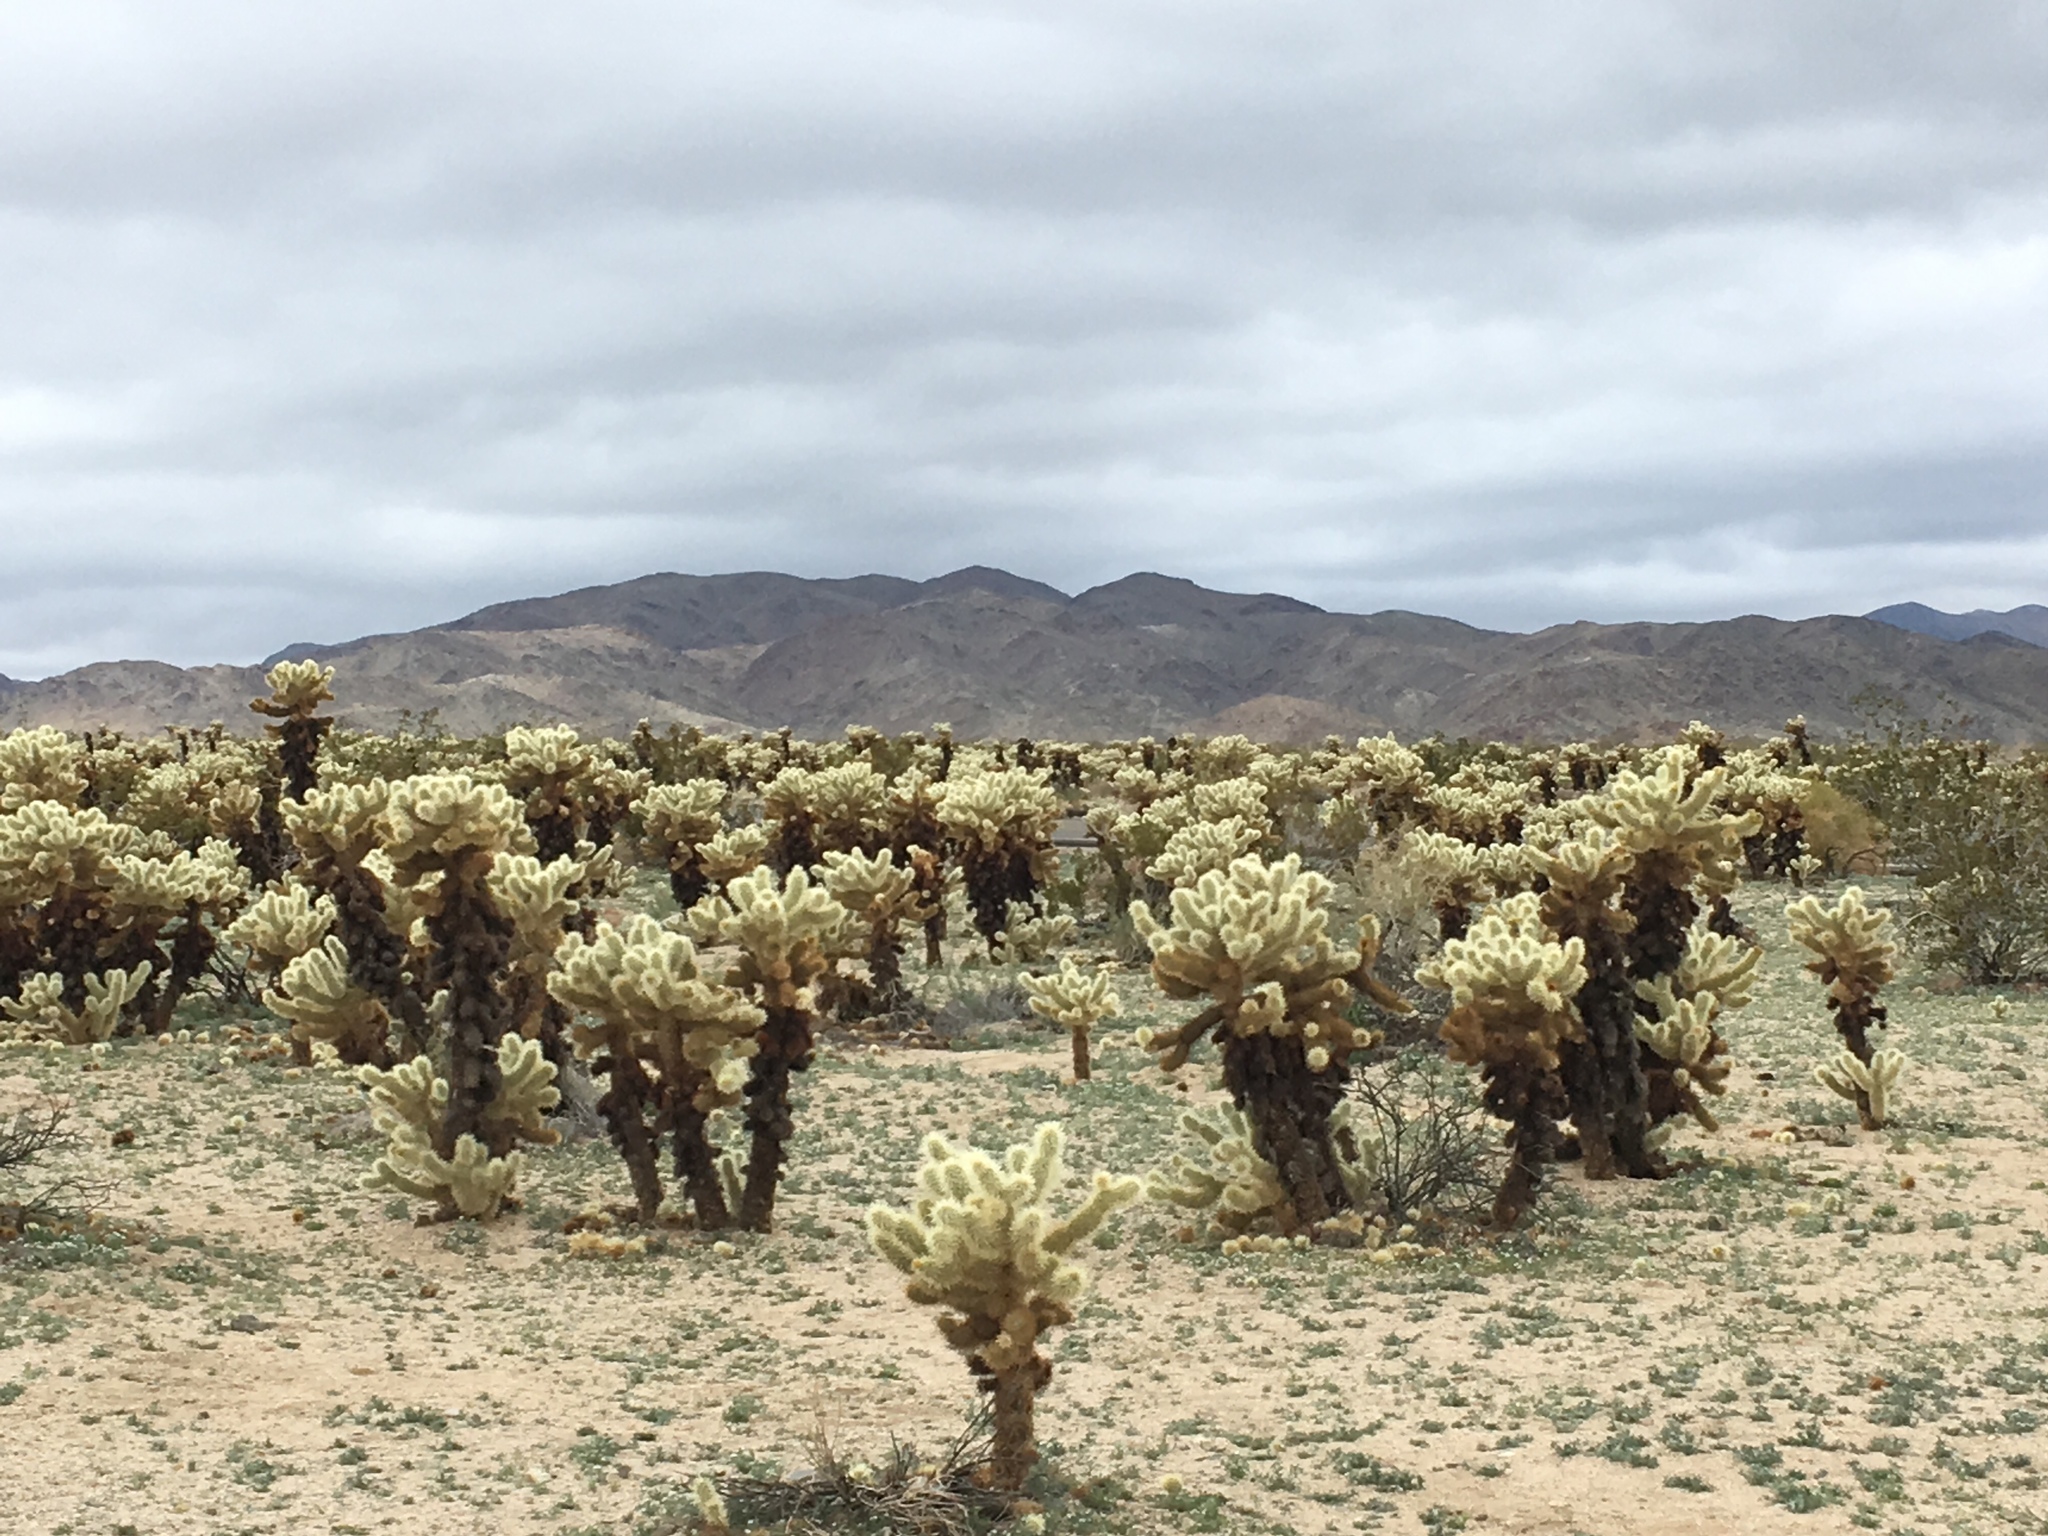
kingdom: Plantae
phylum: Tracheophyta
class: Magnoliopsida
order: Caryophyllales
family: Cactaceae
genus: Cylindropuntia
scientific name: Cylindropuntia fosbergii
